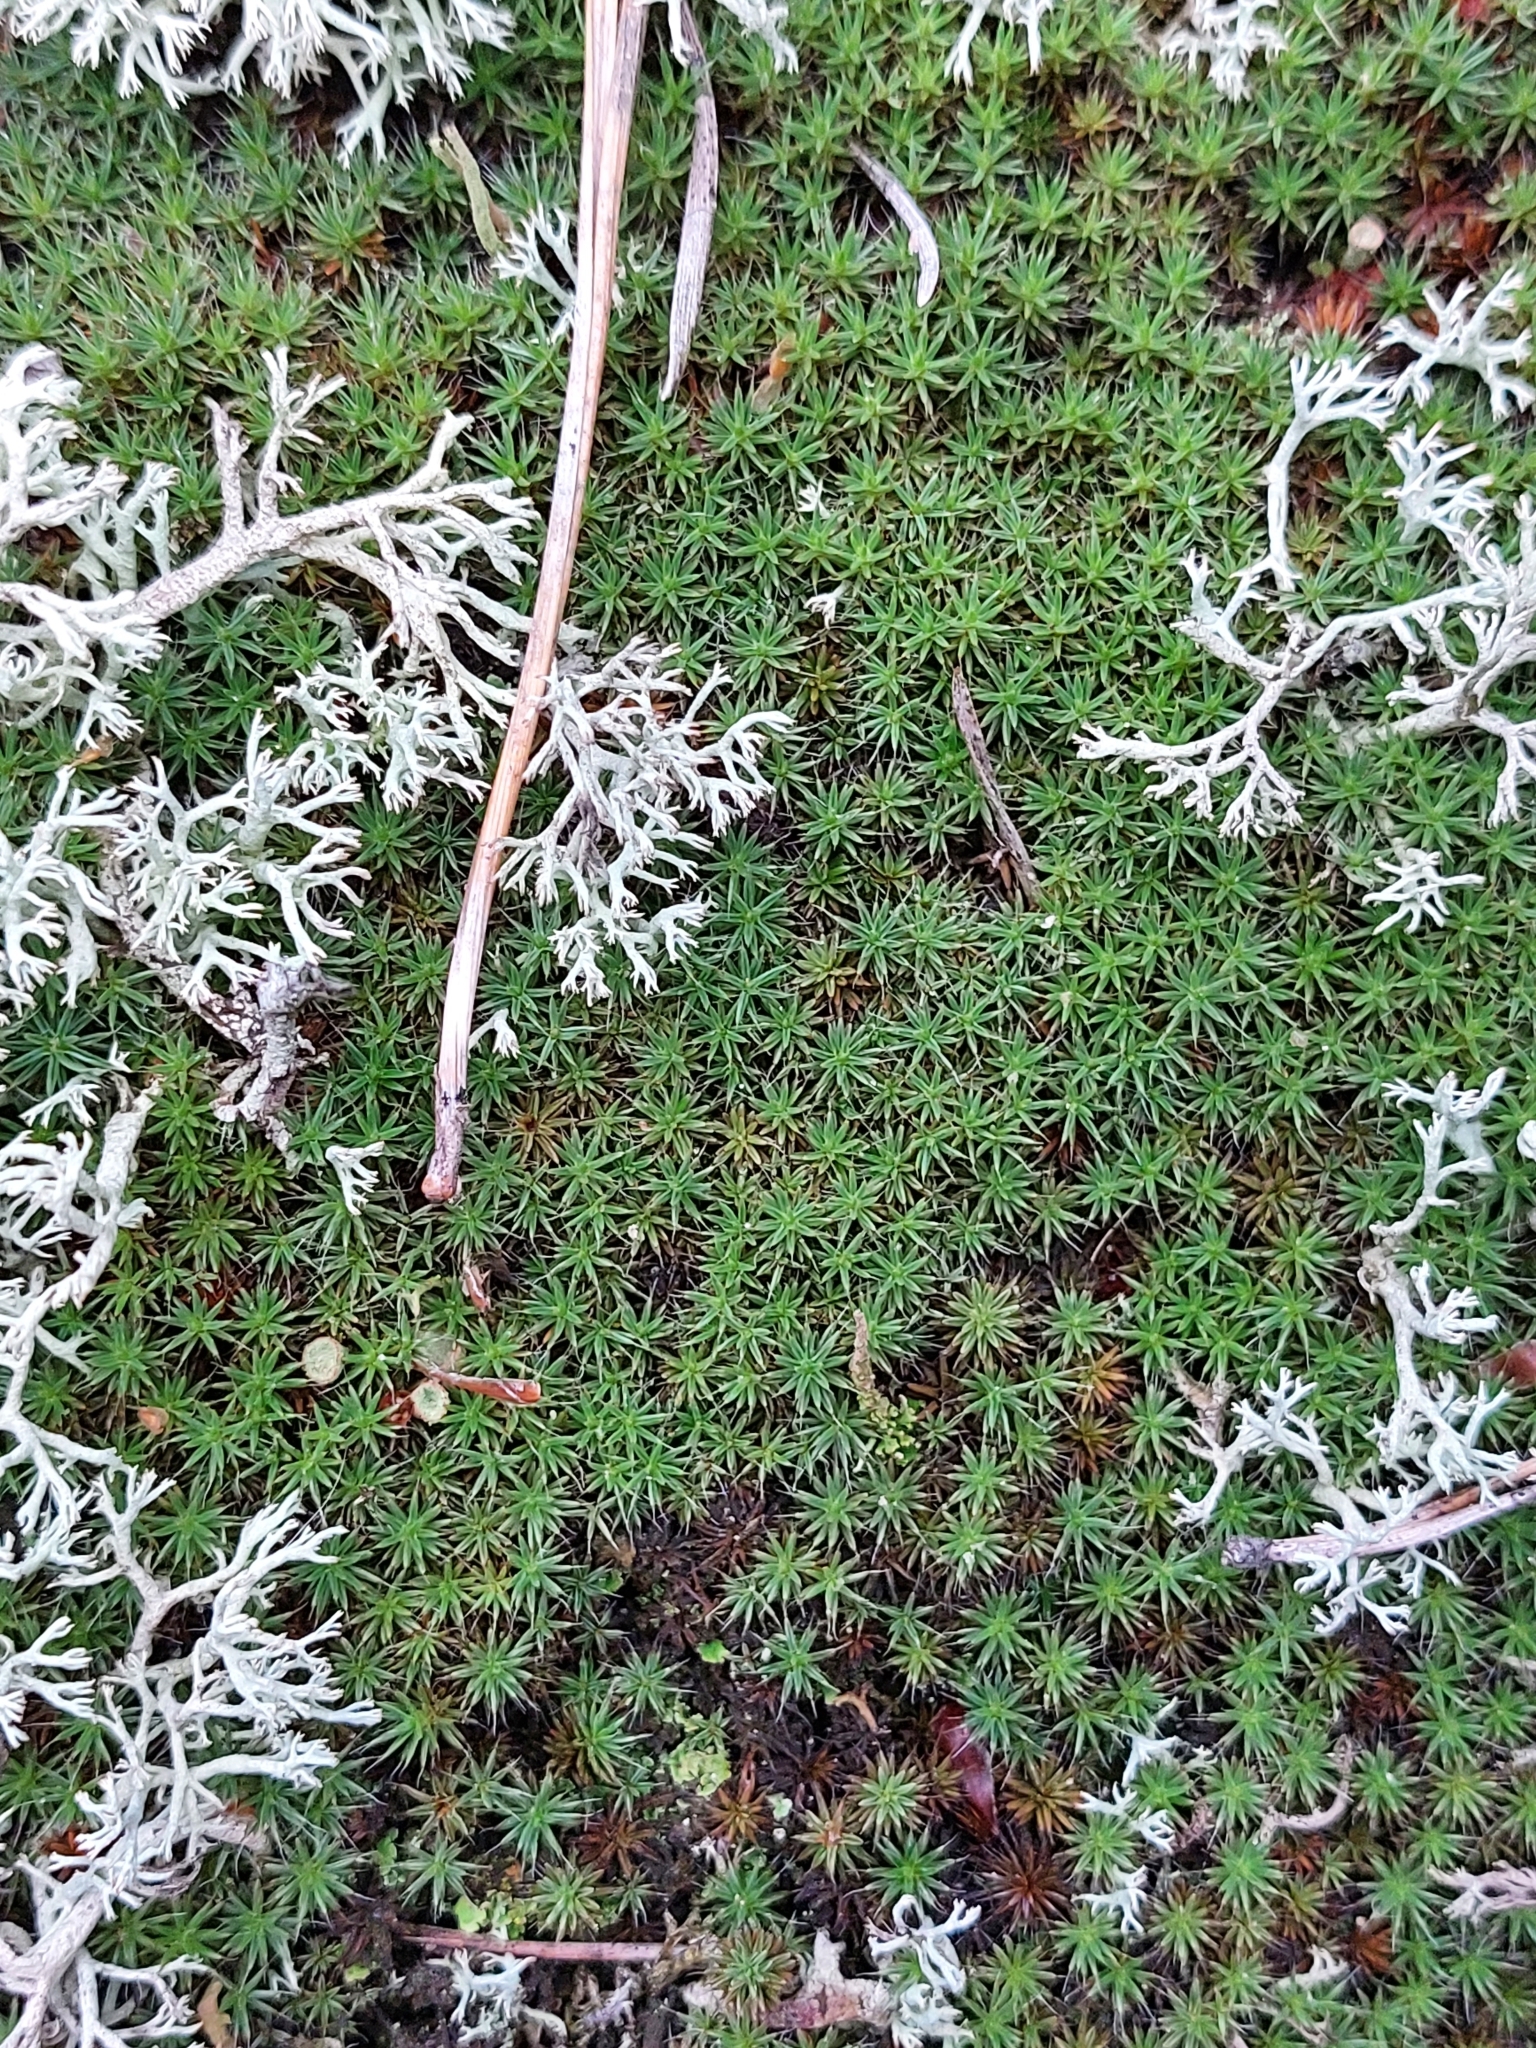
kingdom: Plantae
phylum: Bryophyta
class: Polytrichopsida
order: Polytrichales
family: Polytrichaceae
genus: Polytrichum
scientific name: Polytrichum piliferum
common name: Bristly haircap
